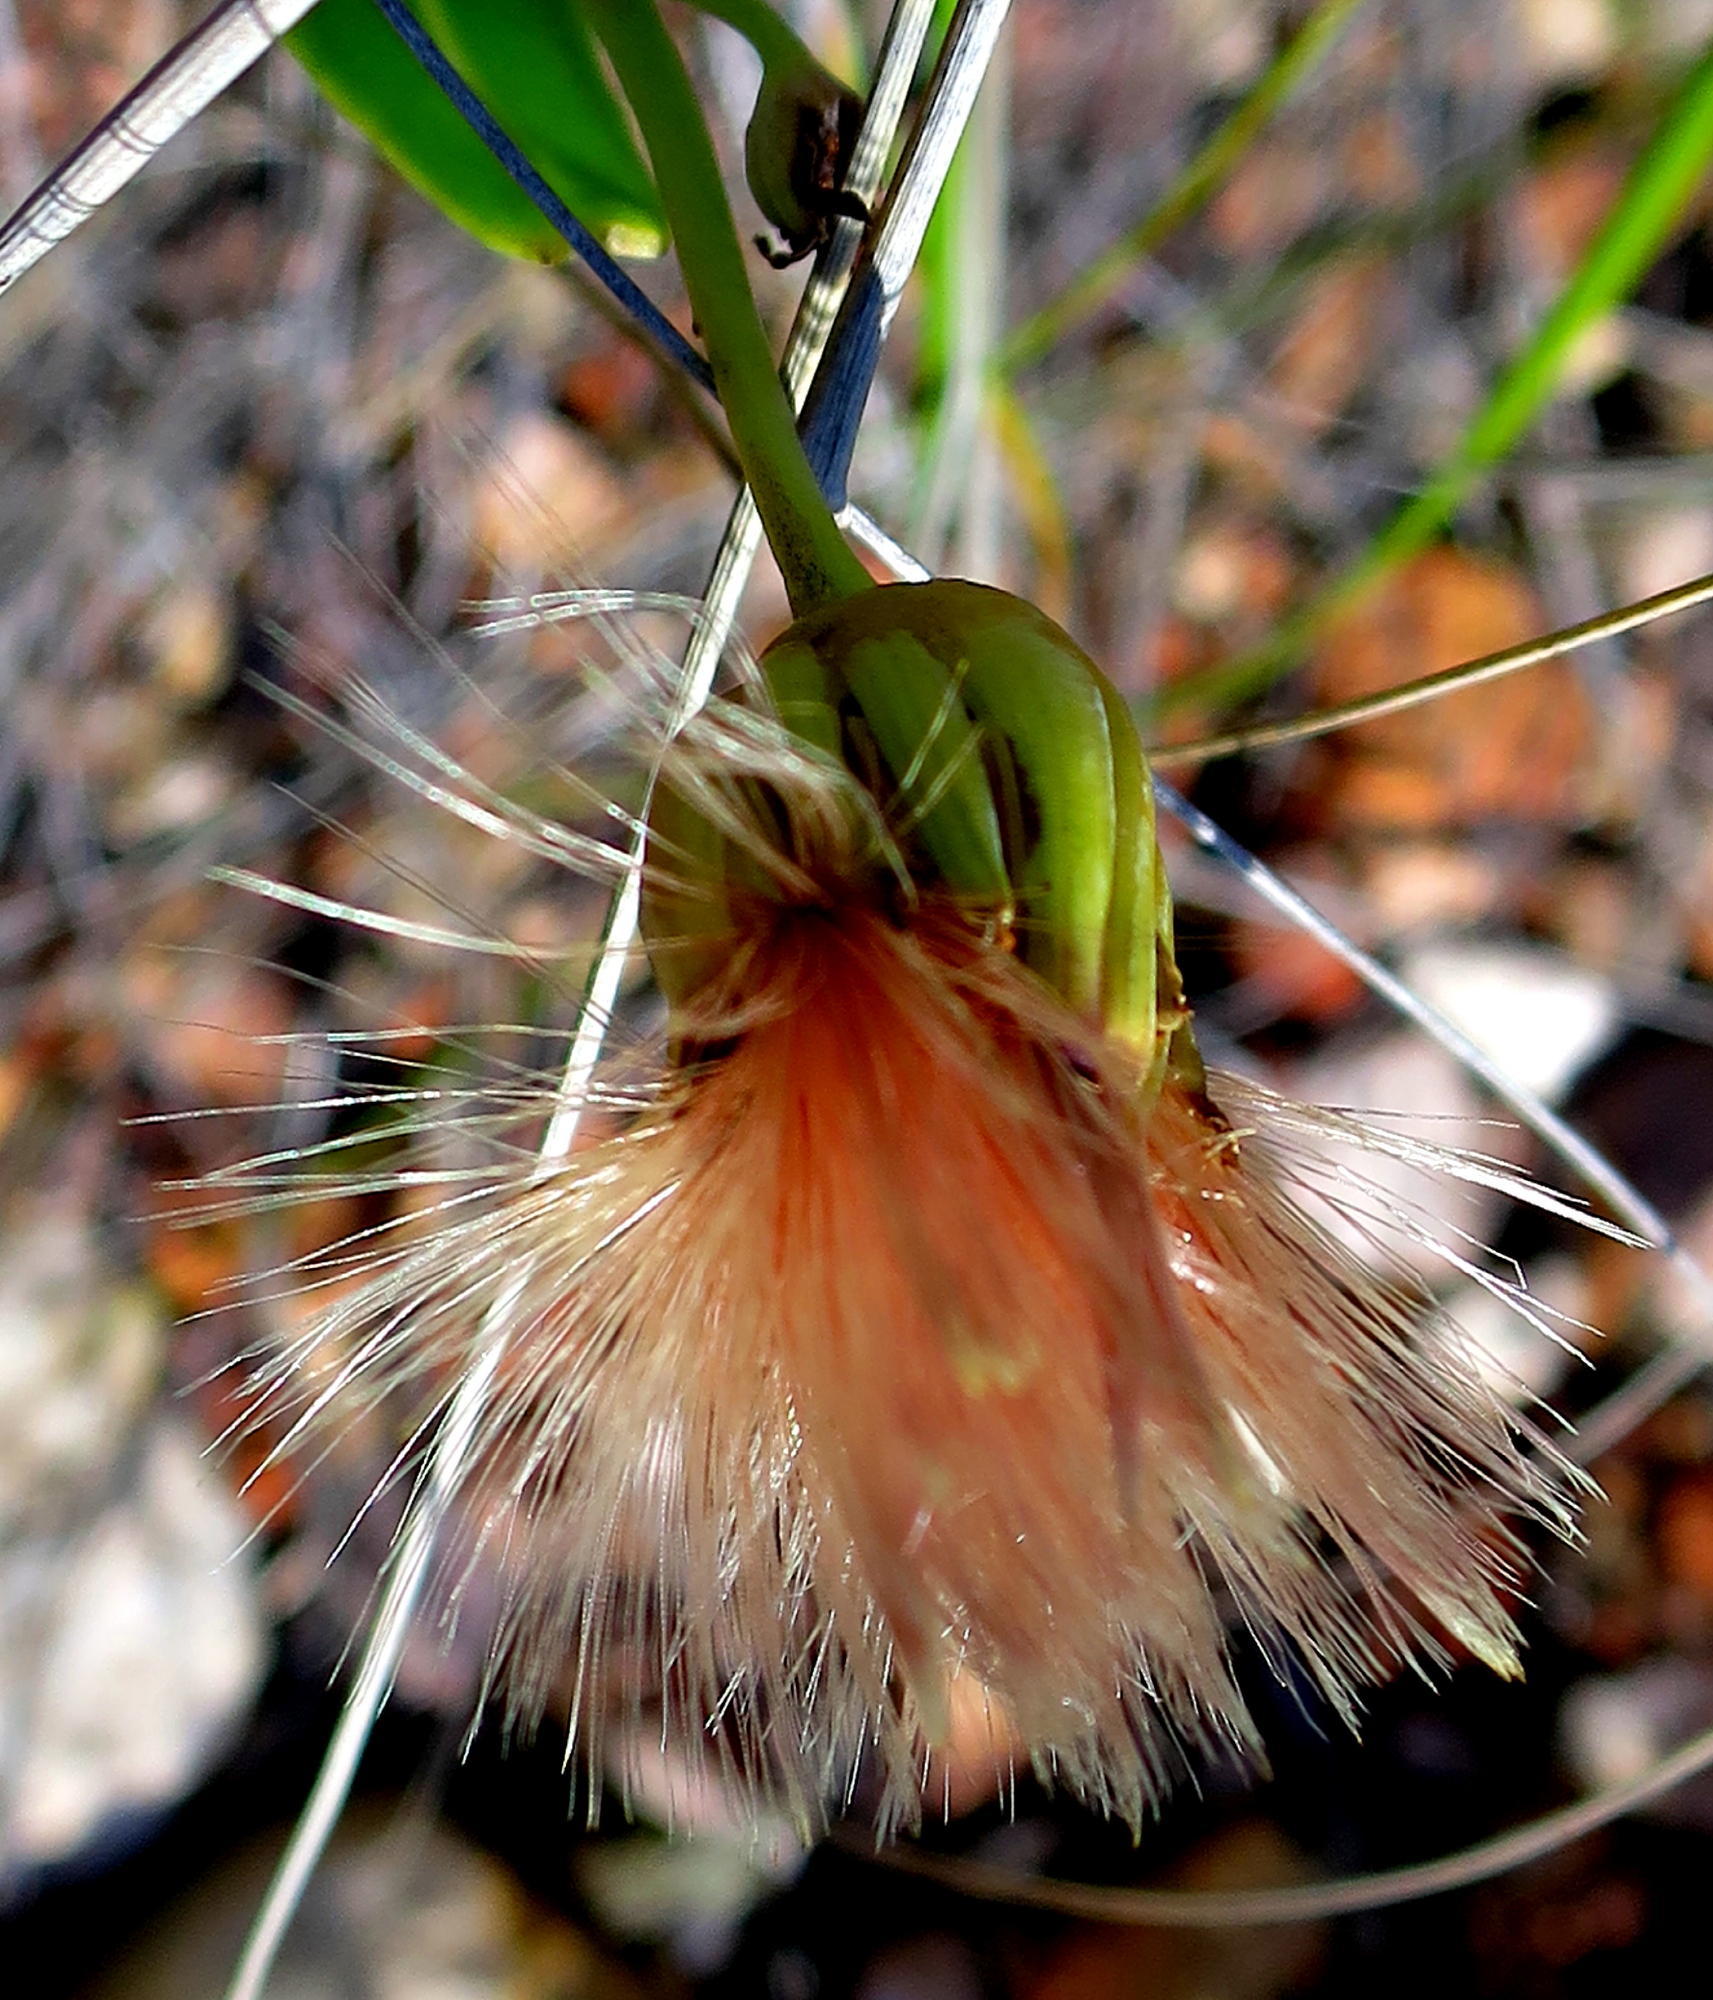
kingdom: Plantae
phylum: Tracheophyta
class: Magnoliopsida
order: Asterales
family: Asteraceae
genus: Othonna
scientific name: Othonna gymnodiscus
